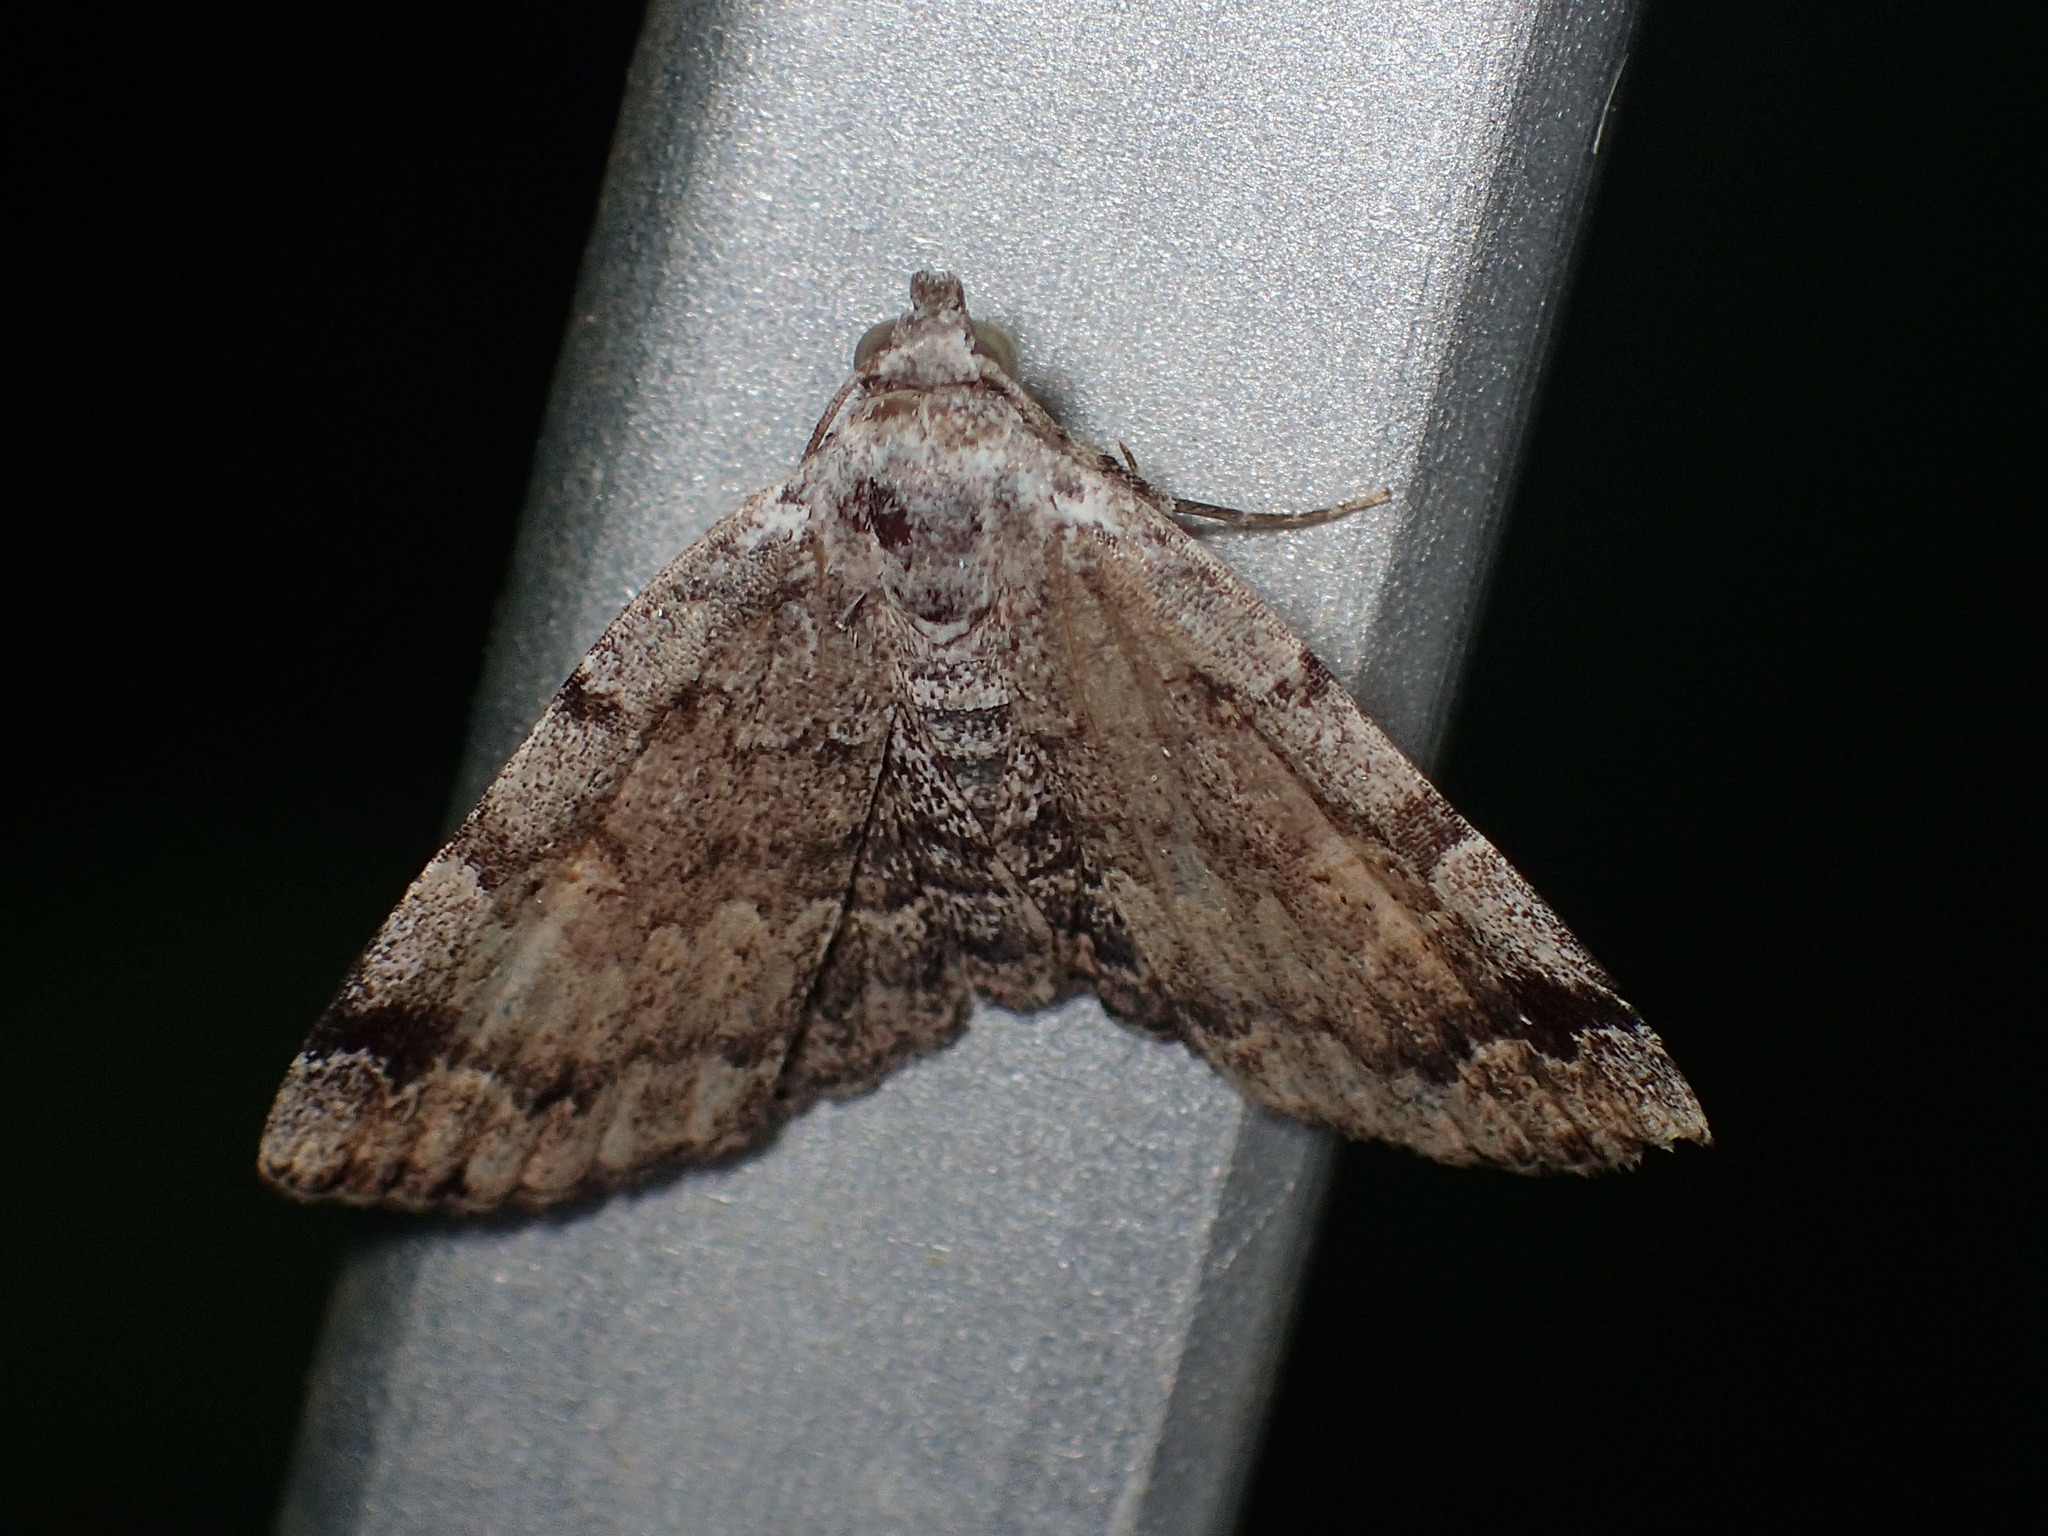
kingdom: Animalia
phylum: Arthropoda
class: Insecta
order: Lepidoptera
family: Erebidae
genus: Idia
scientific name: Idia americalis
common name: American idia moth
